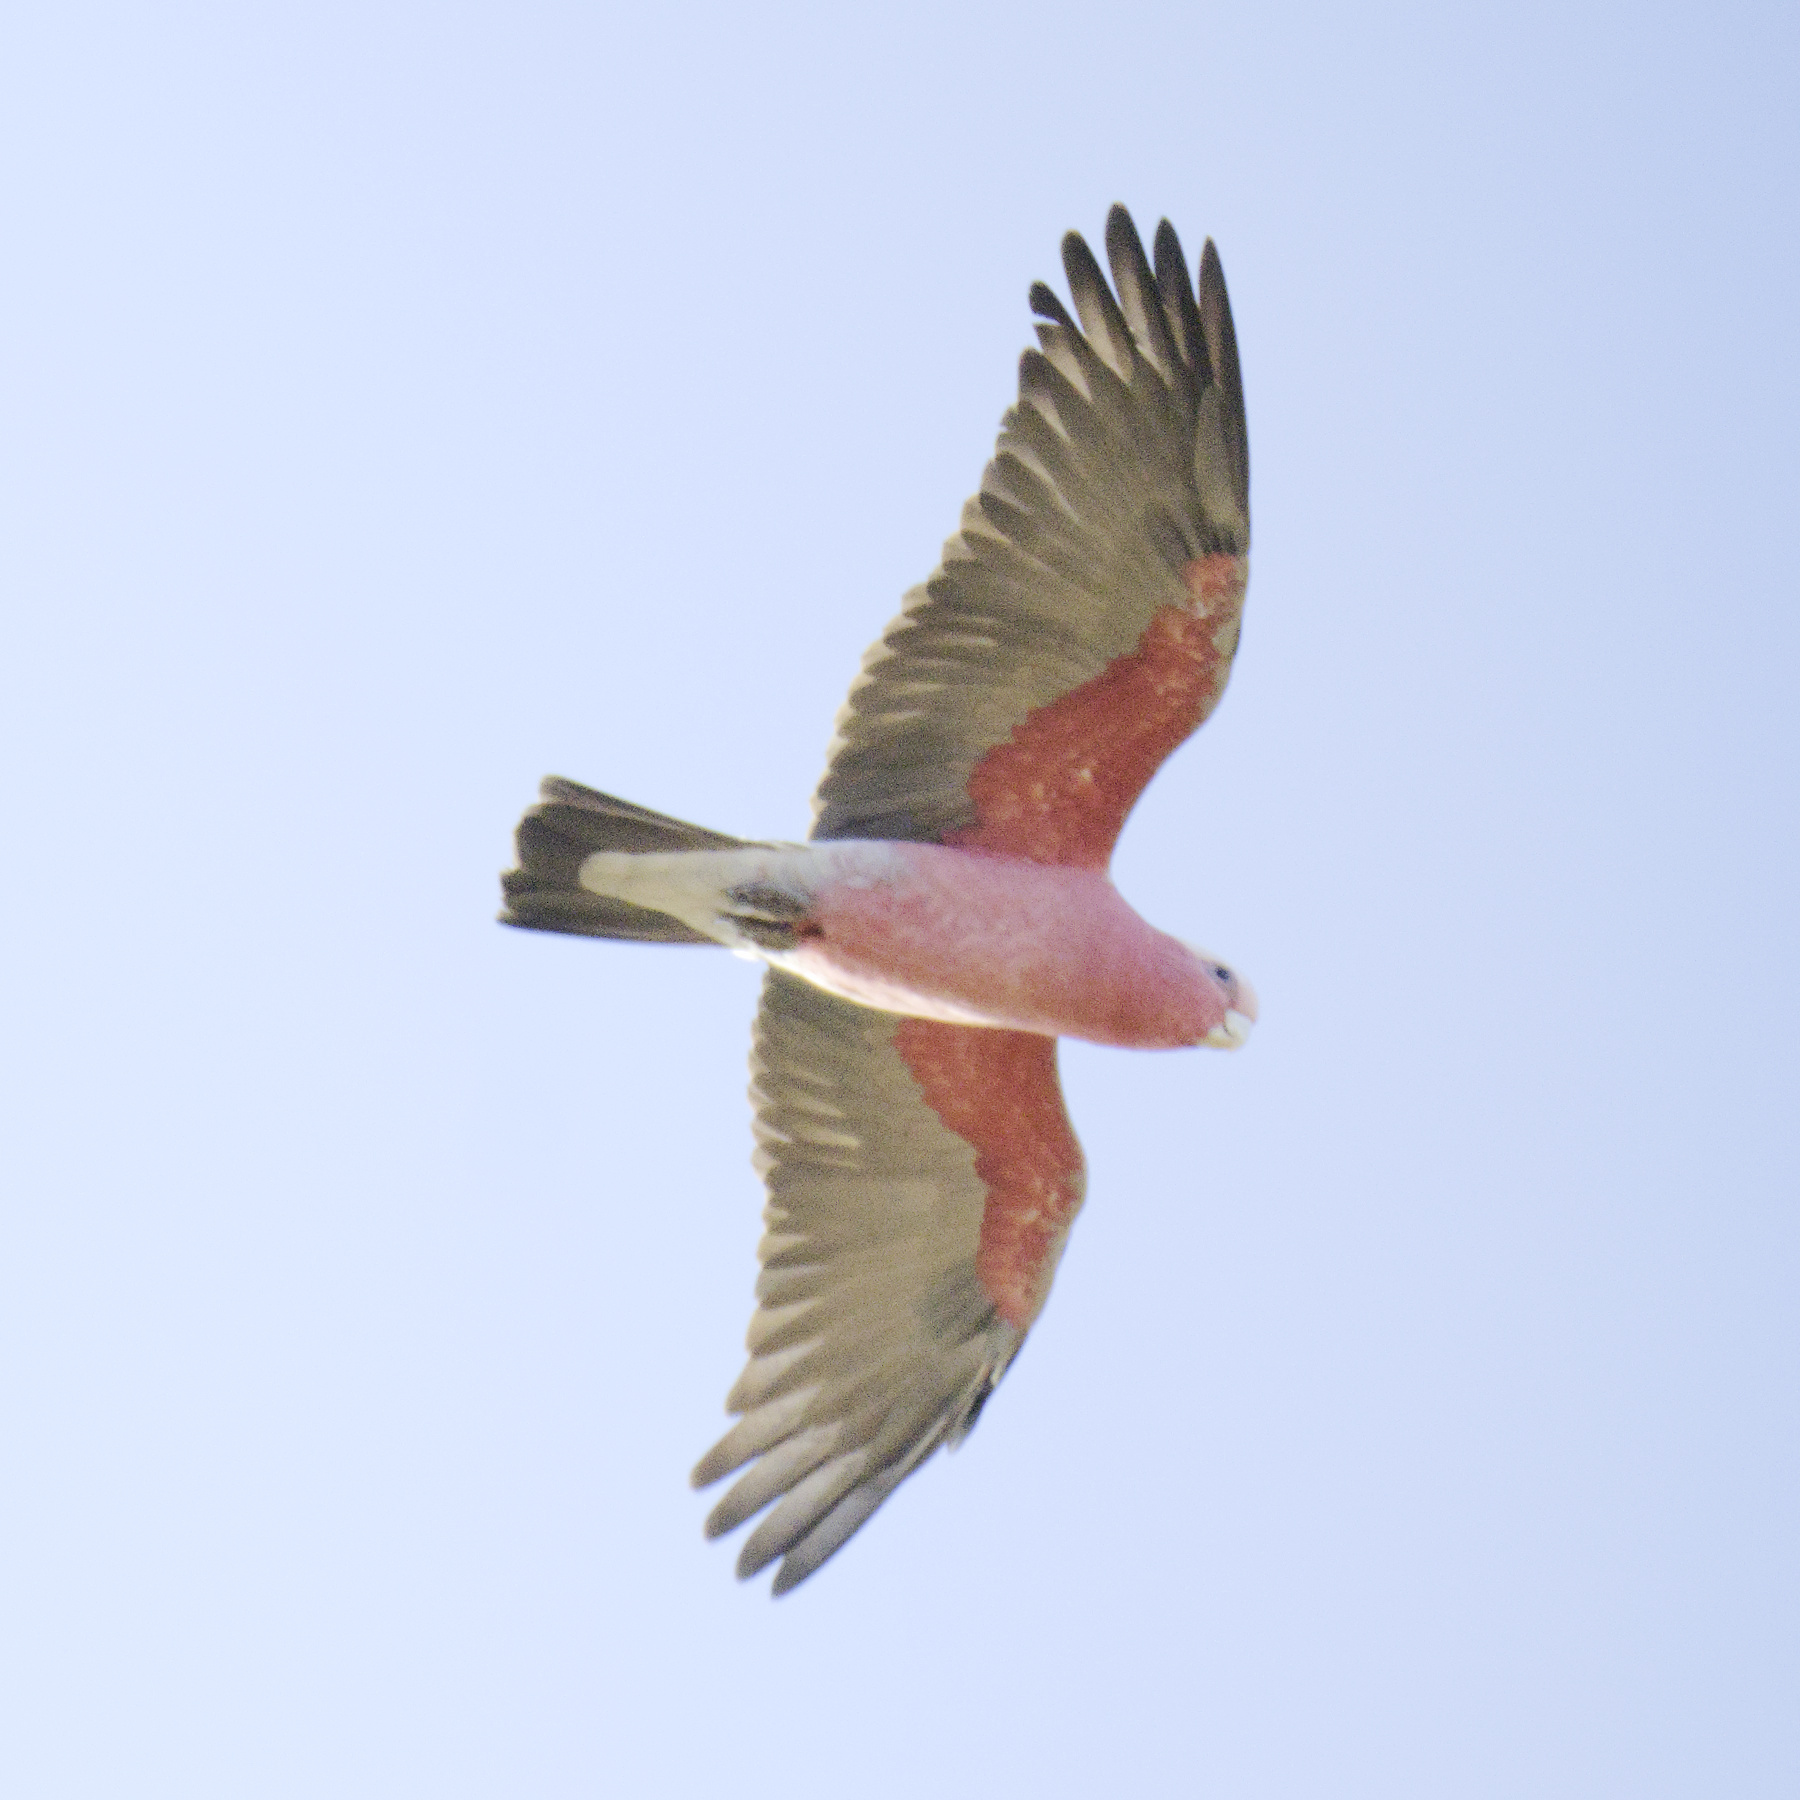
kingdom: Animalia
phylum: Chordata
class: Aves
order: Psittaciformes
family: Psittacidae
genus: Eolophus
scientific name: Eolophus roseicapilla
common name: Galah
